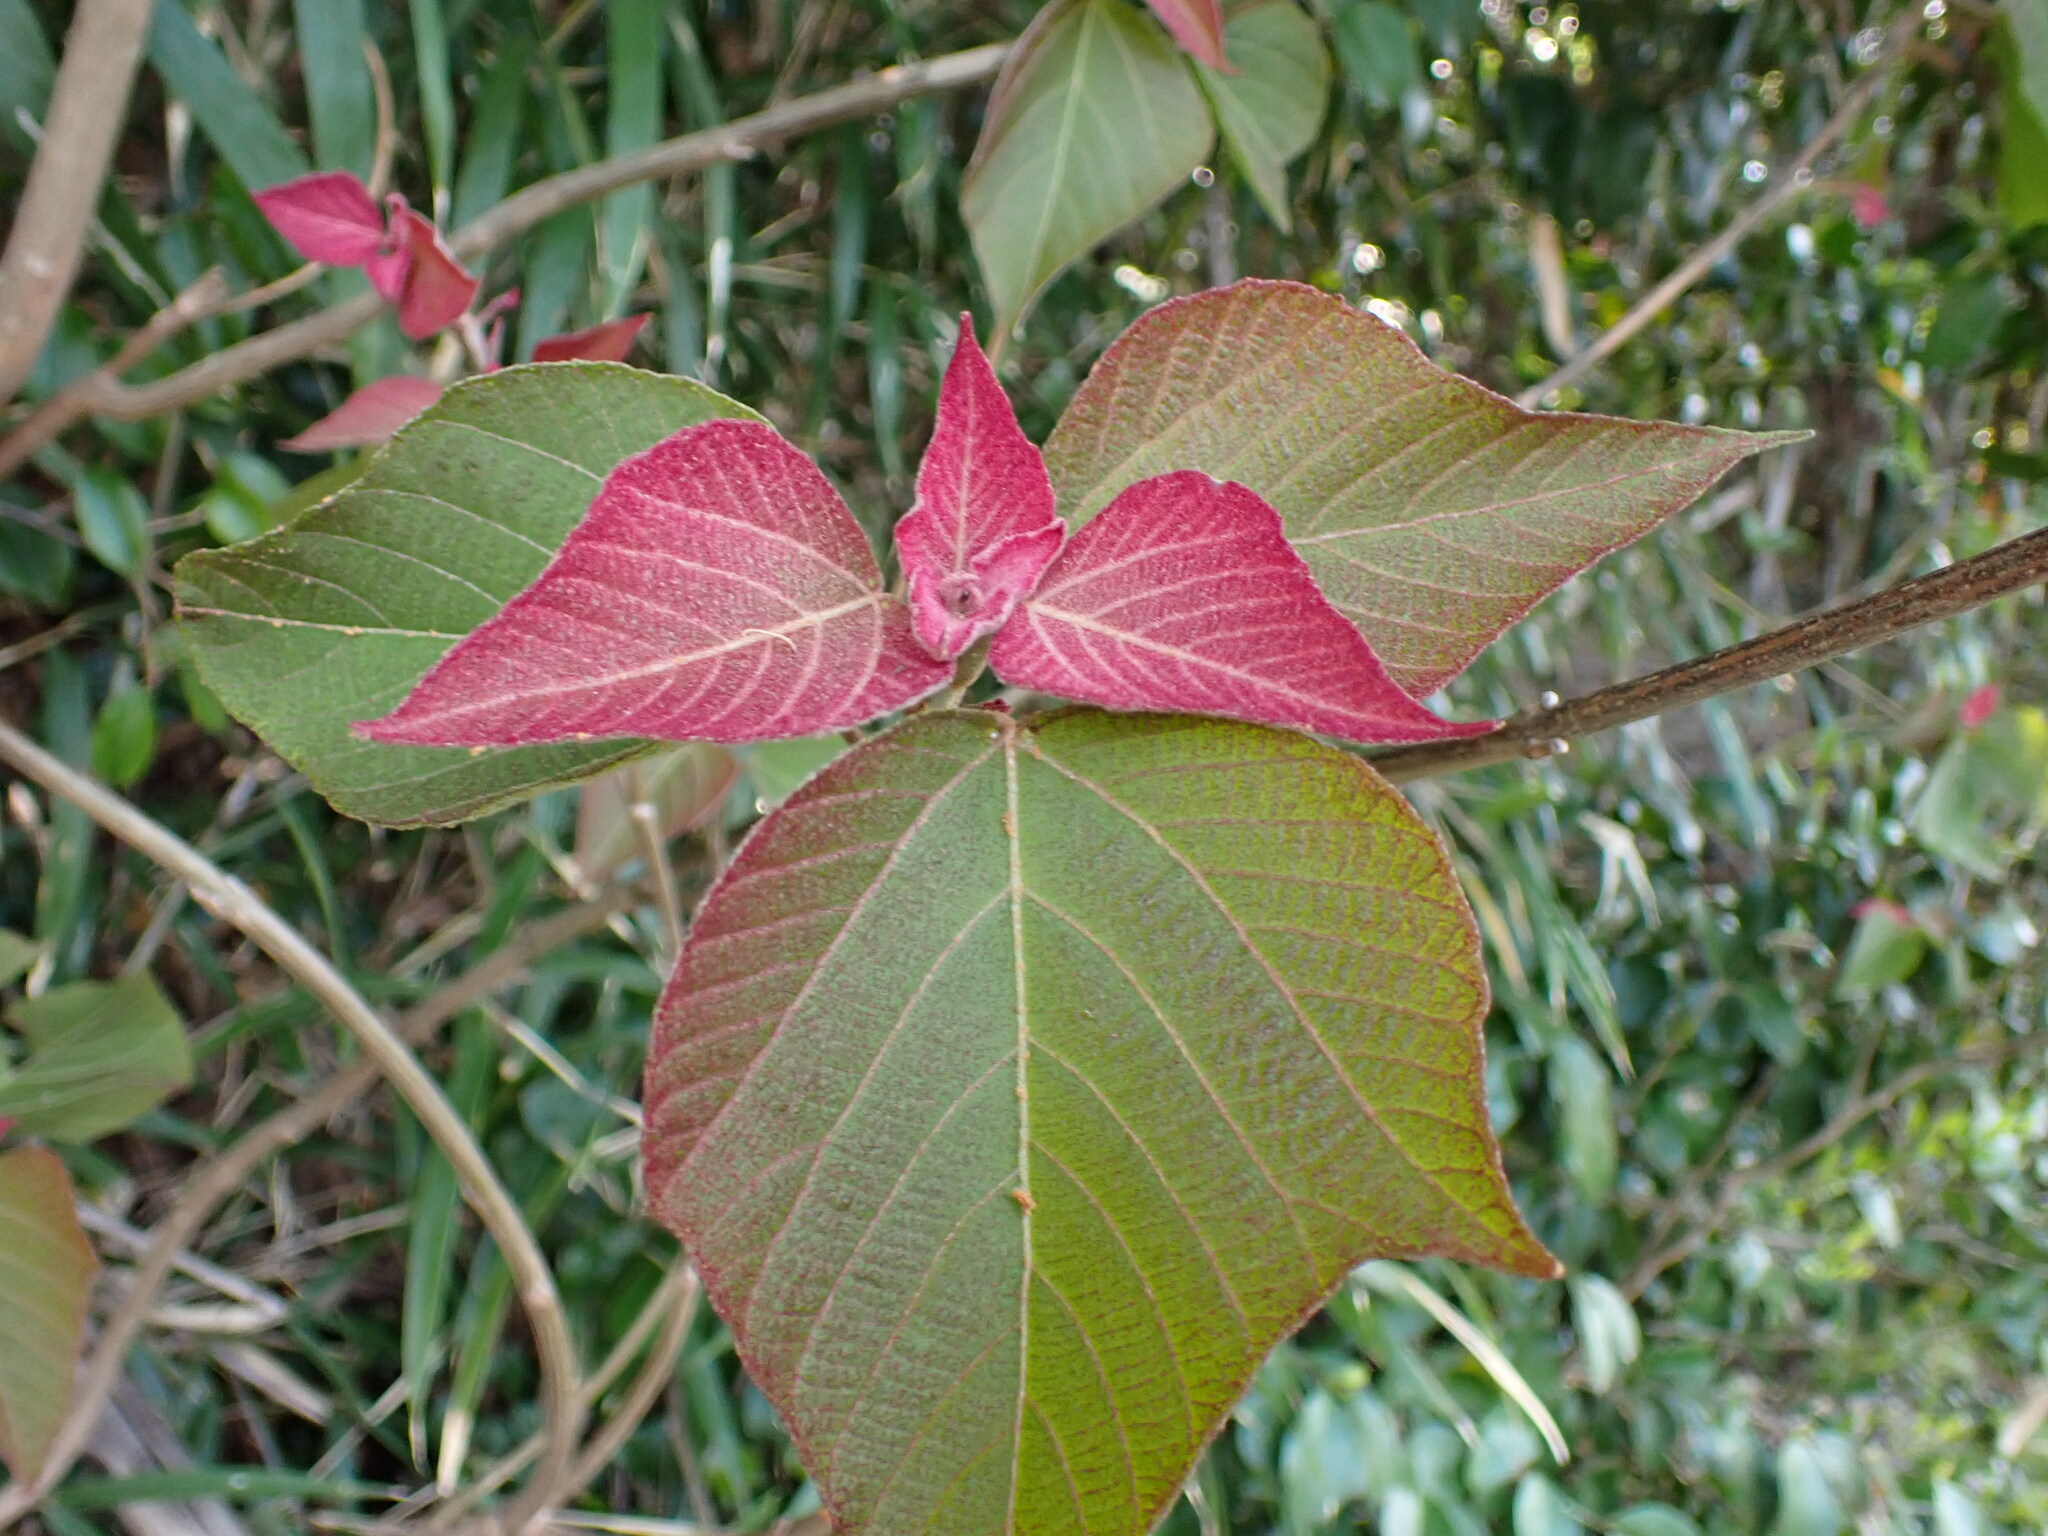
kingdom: Plantae
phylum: Tracheophyta
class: Magnoliopsida
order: Malpighiales
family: Euphorbiaceae
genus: Mallotus
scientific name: Mallotus japonicus
